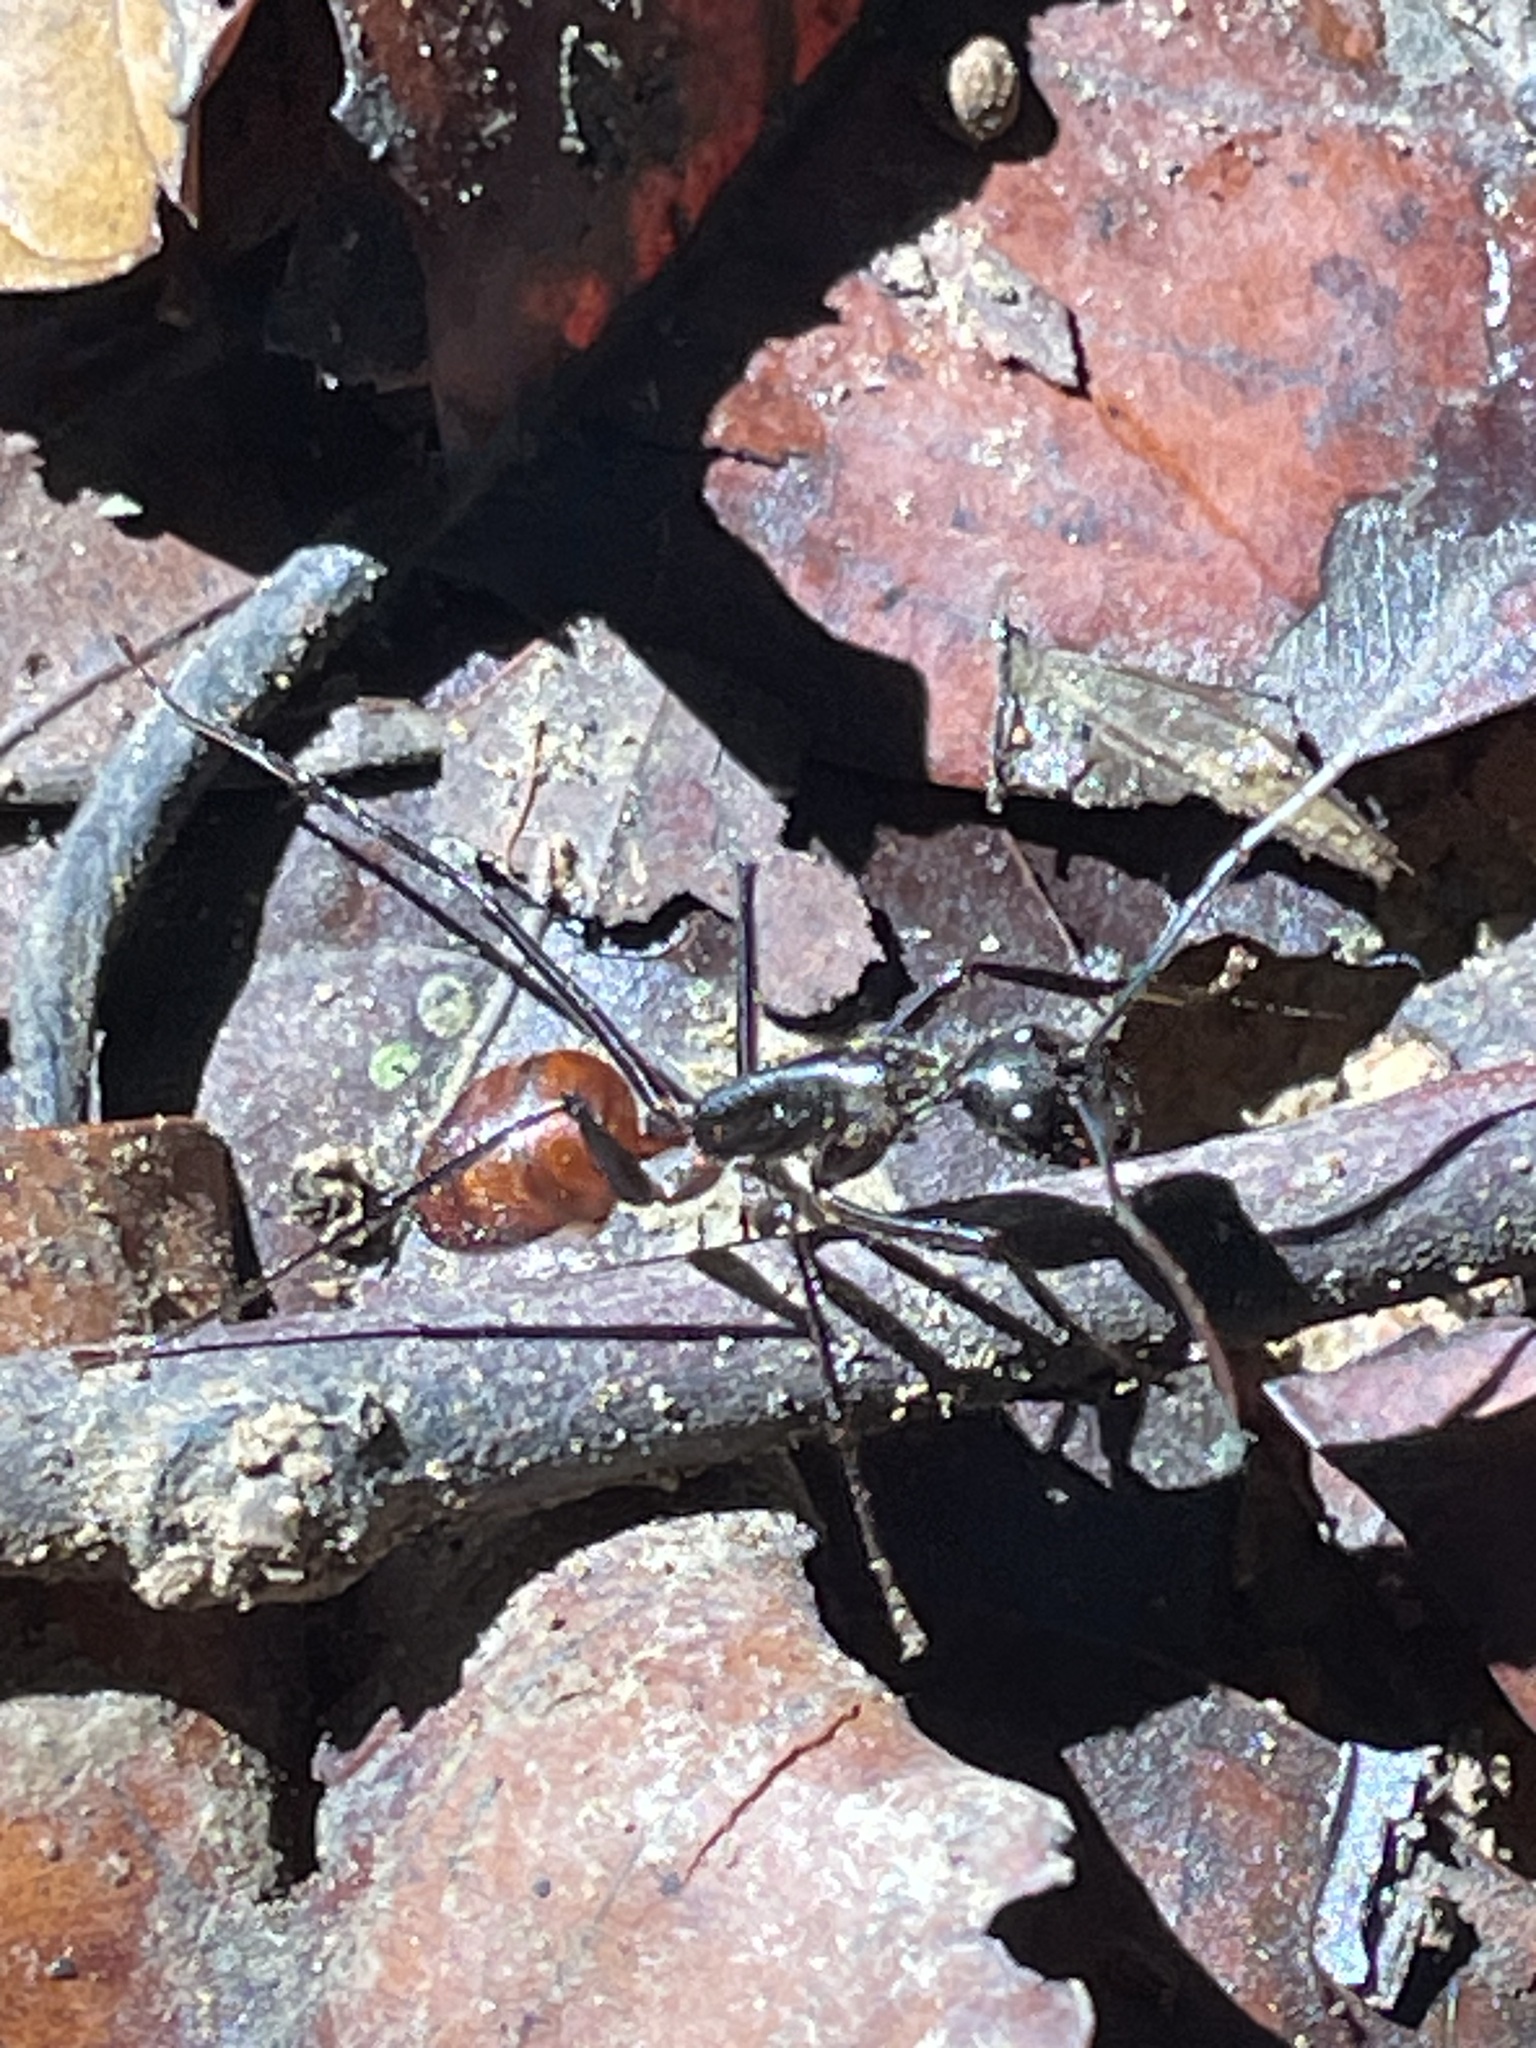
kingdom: Animalia
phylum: Arthropoda
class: Insecta
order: Hymenoptera
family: Formicidae
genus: Dinomyrmex
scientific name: Dinomyrmex
